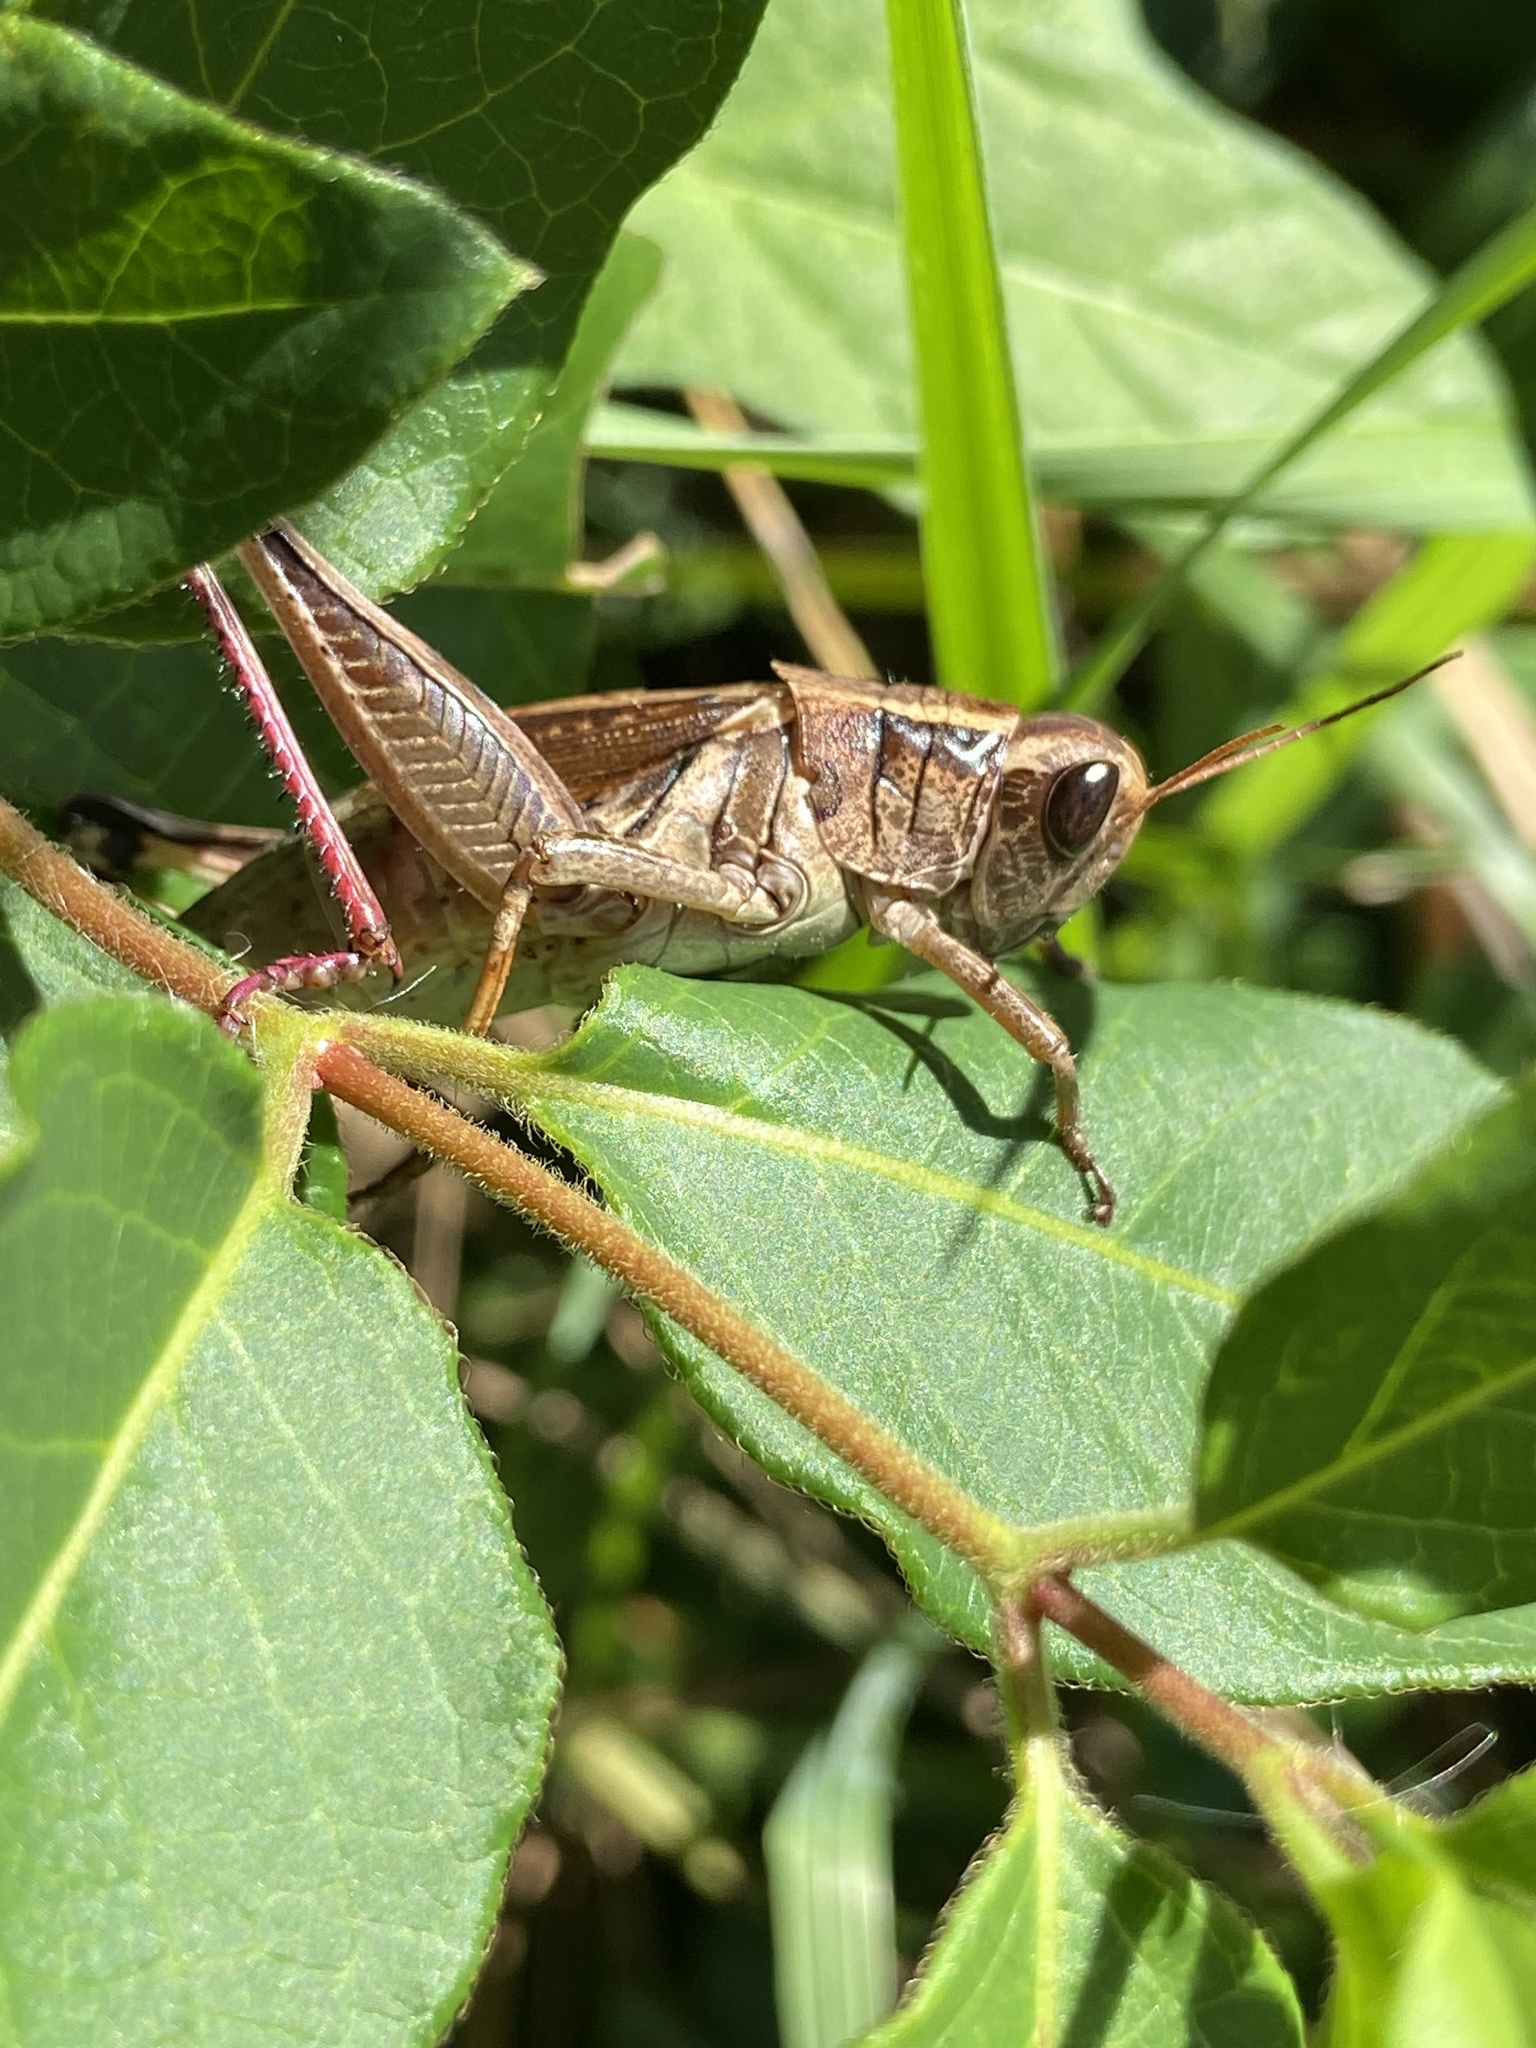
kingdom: Animalia
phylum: Arthropoda
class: Insecta
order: Orthoptera
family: Acrididae
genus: Melanoplus
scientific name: Melanoplus bivittatus
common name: Two-striped grasshopper
